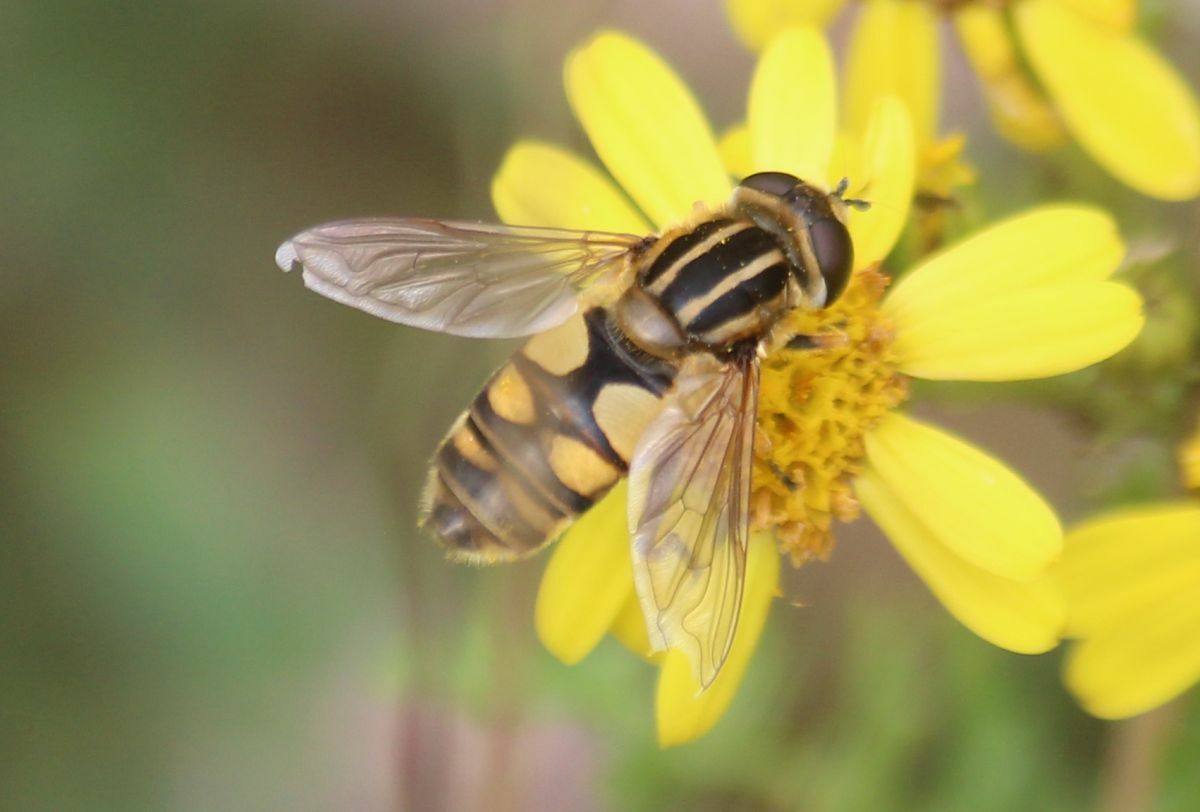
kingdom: Animalia
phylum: Arthropoda
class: Insecta
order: Diptera
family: Syrphidae
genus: Helophilus
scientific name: Helophilus hybridus
